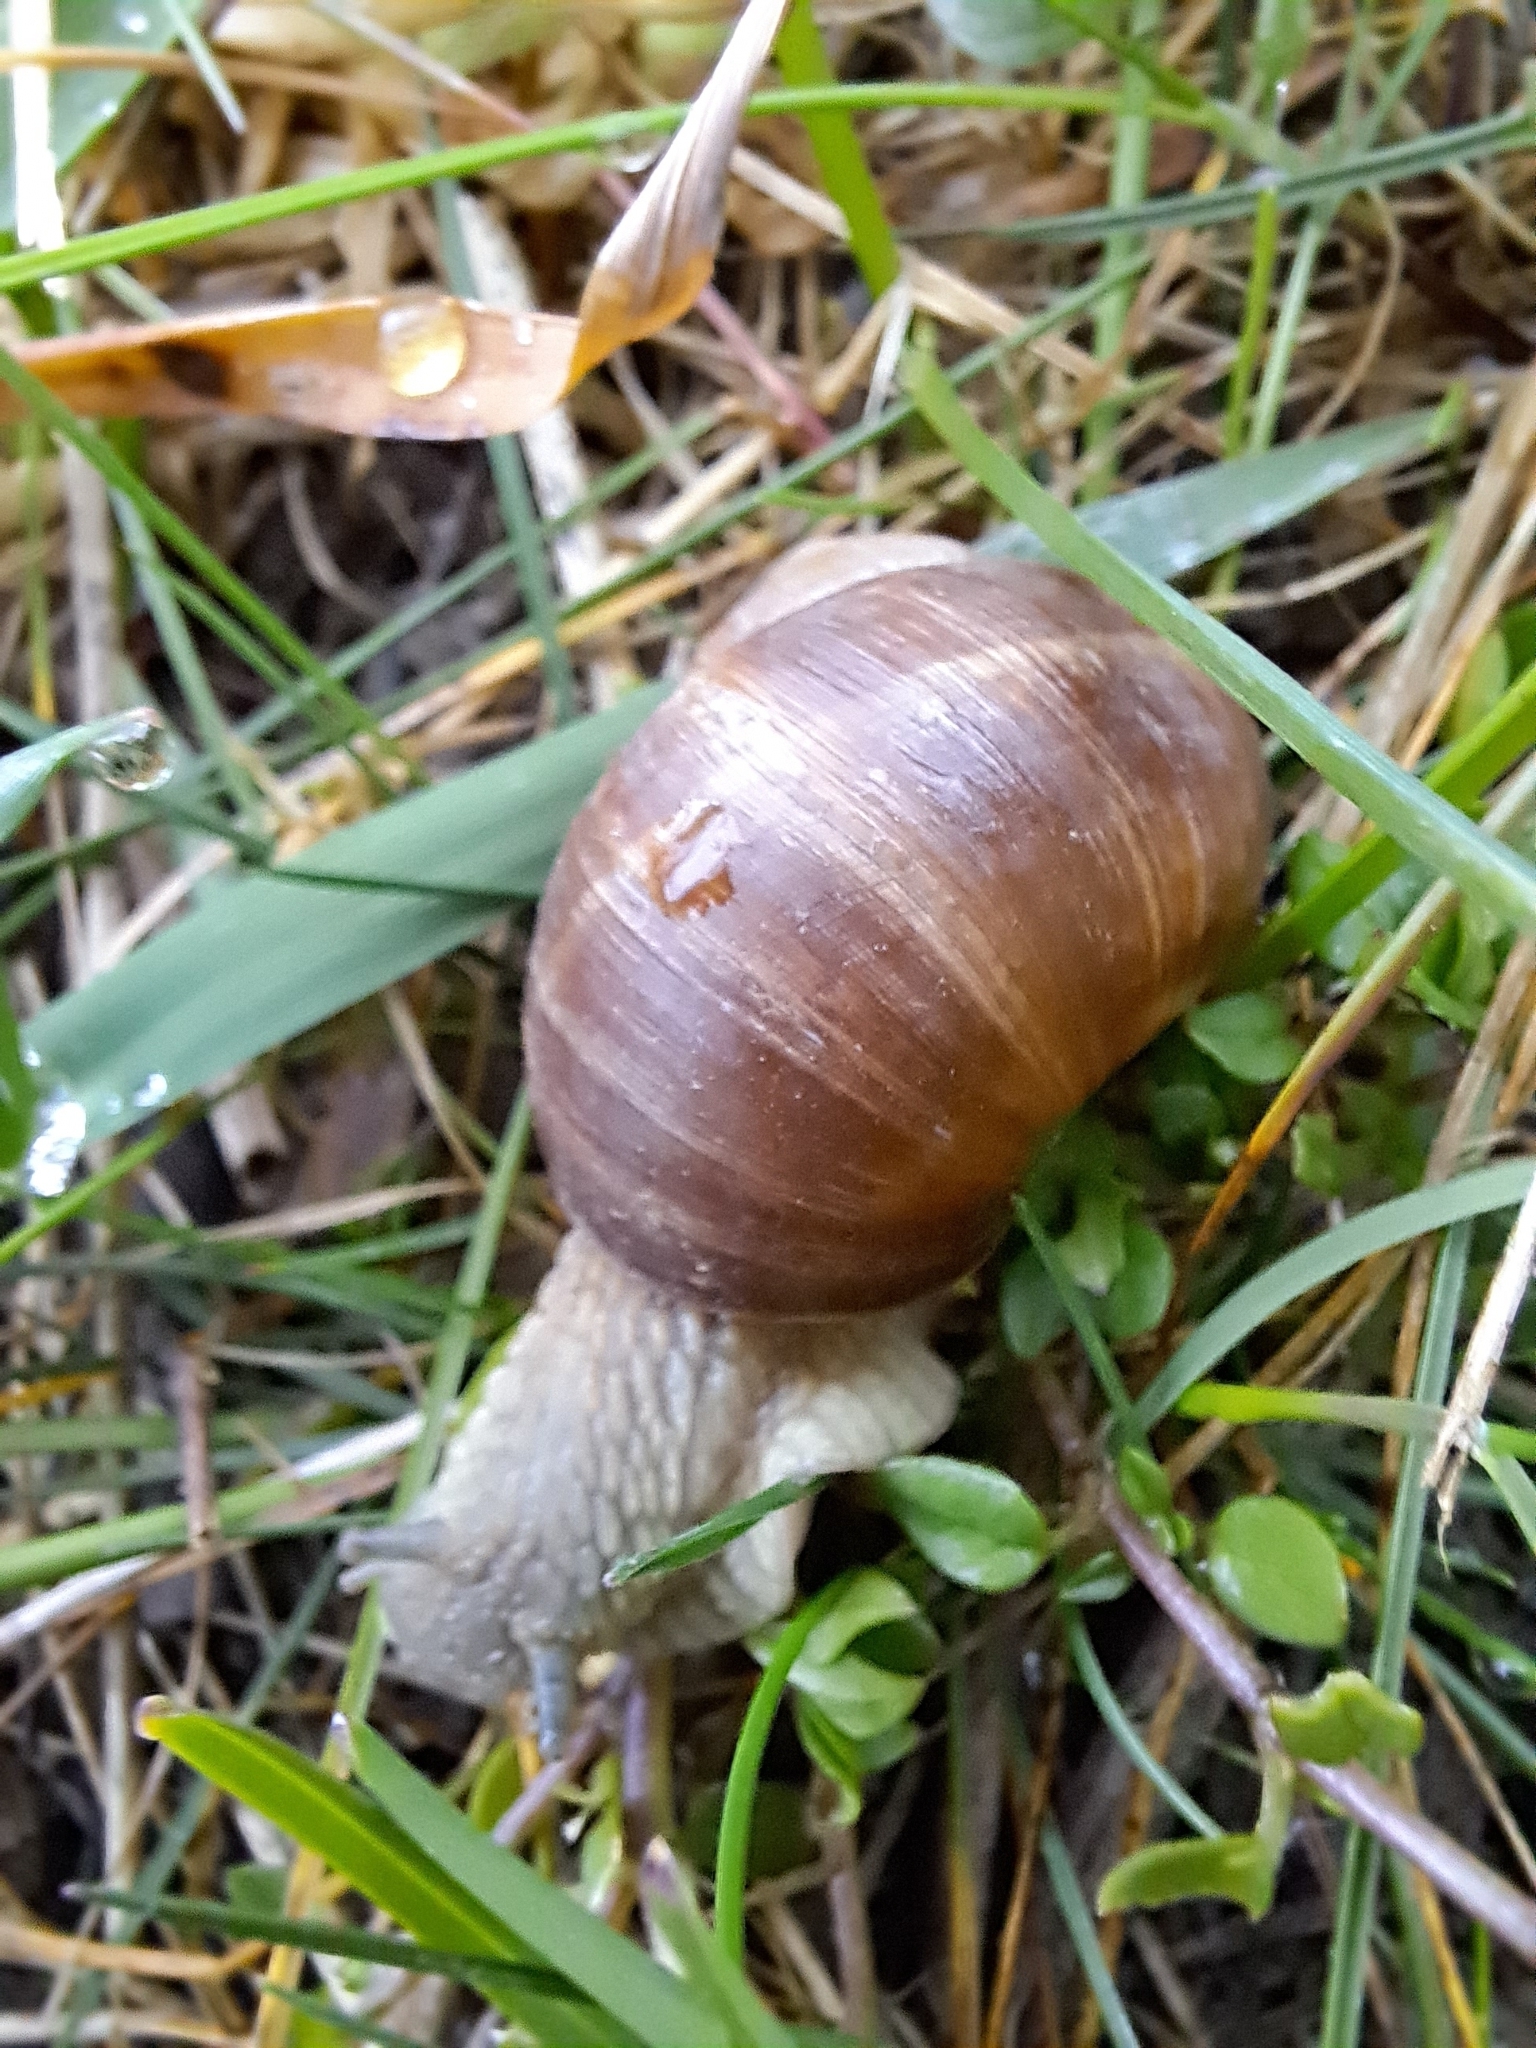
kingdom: Animalia
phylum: Mollusca
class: Gastropoda
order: Stylommatophora
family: Helicidae
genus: Helix
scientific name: Helix pomatia
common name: Roman snail
